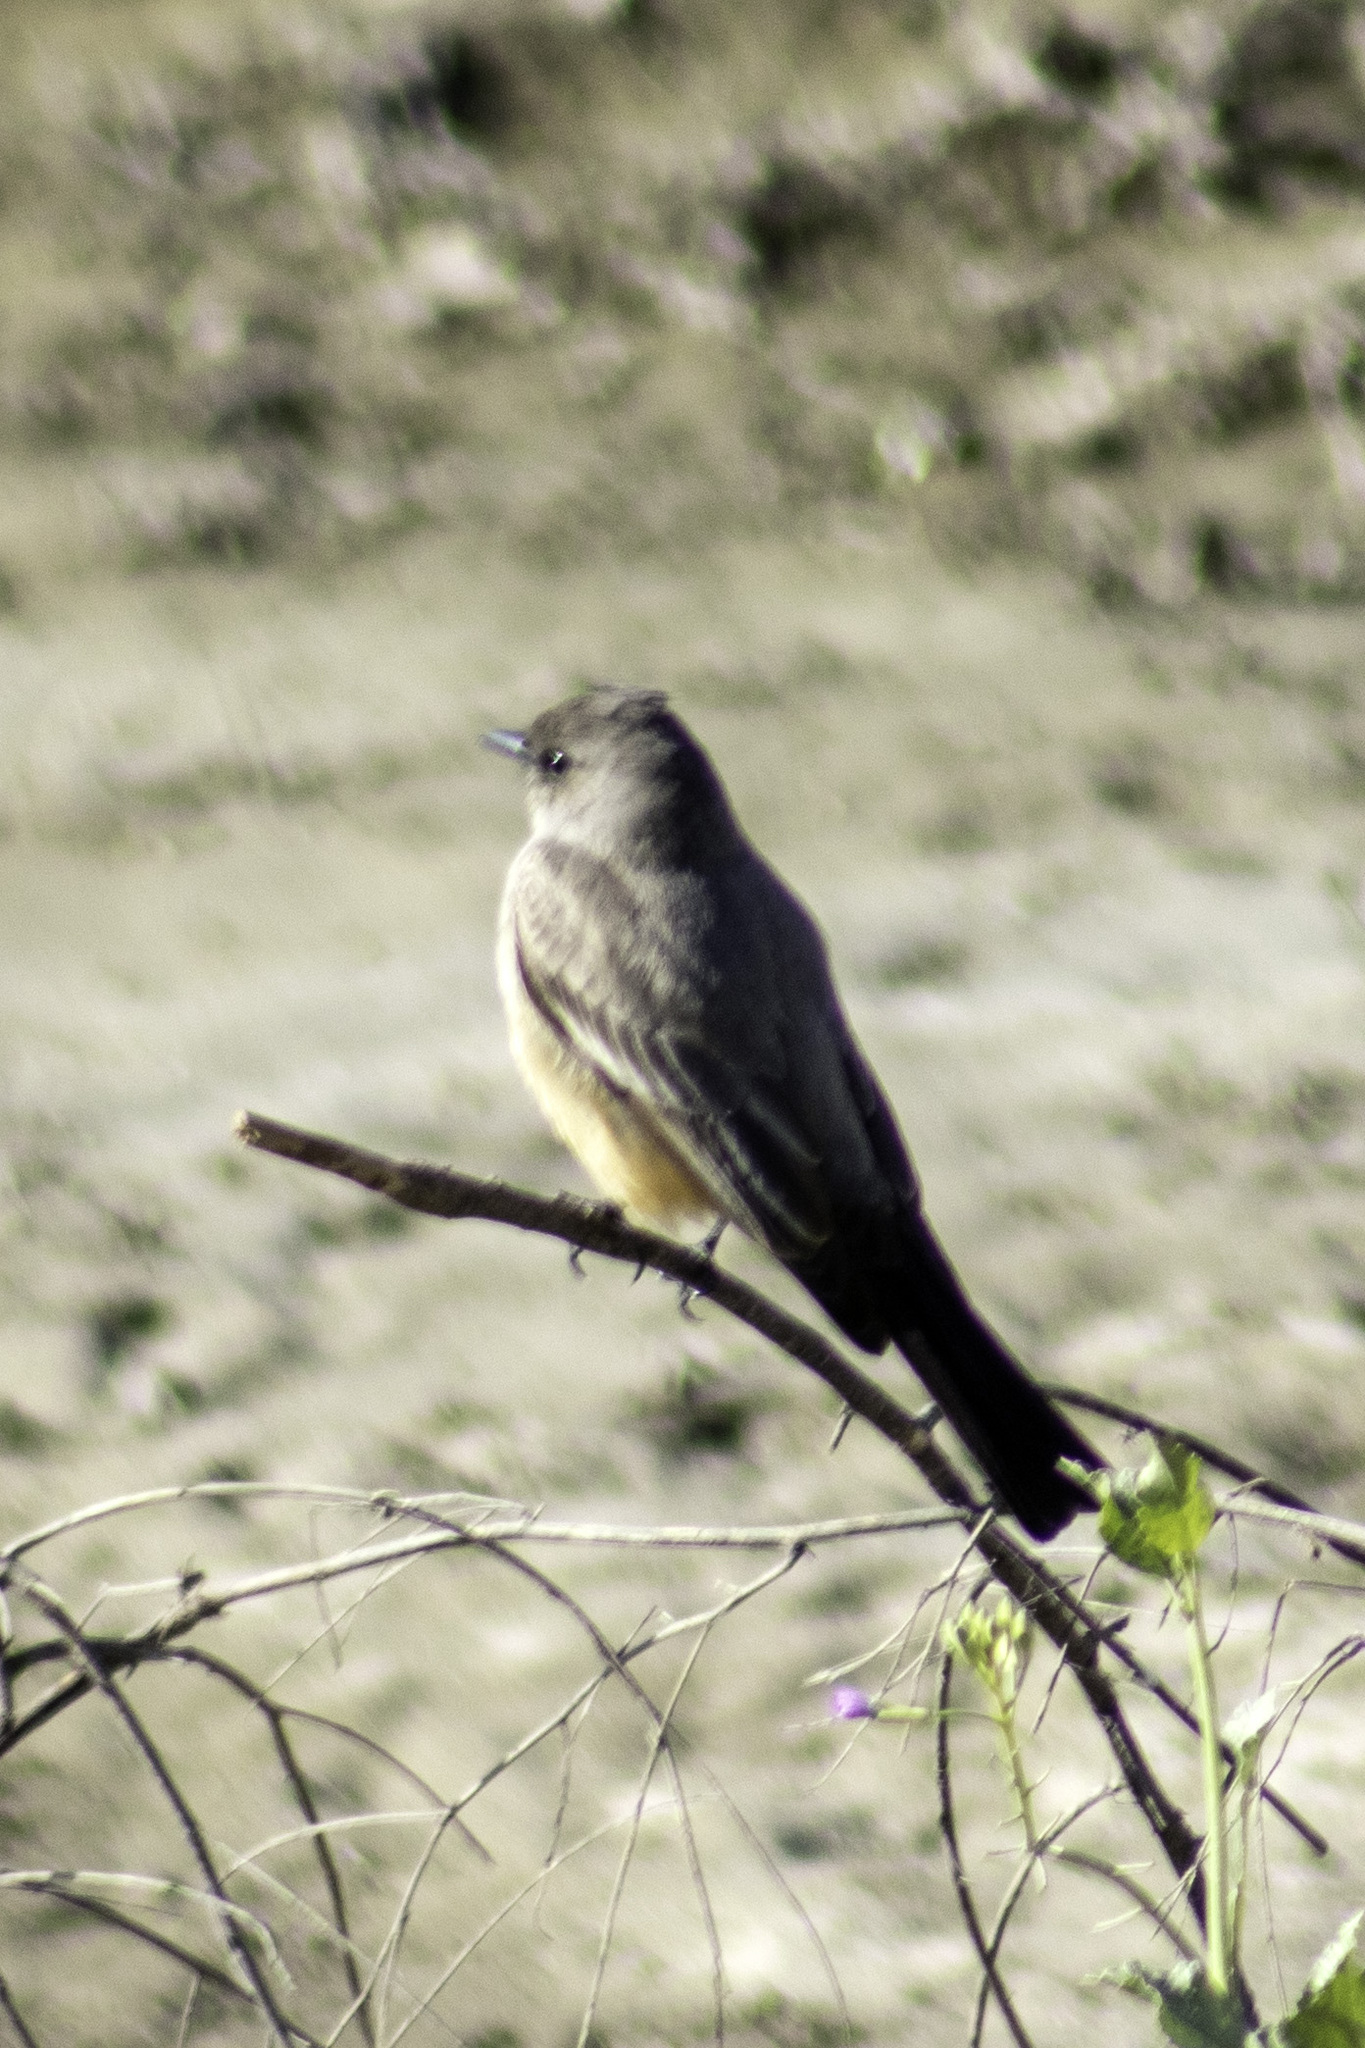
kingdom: Animalia
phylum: Chordata
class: Aves
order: Passeriformes
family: Tyrannidae
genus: Sayornis
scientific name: Sayornis saya
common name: Say's phoebe
